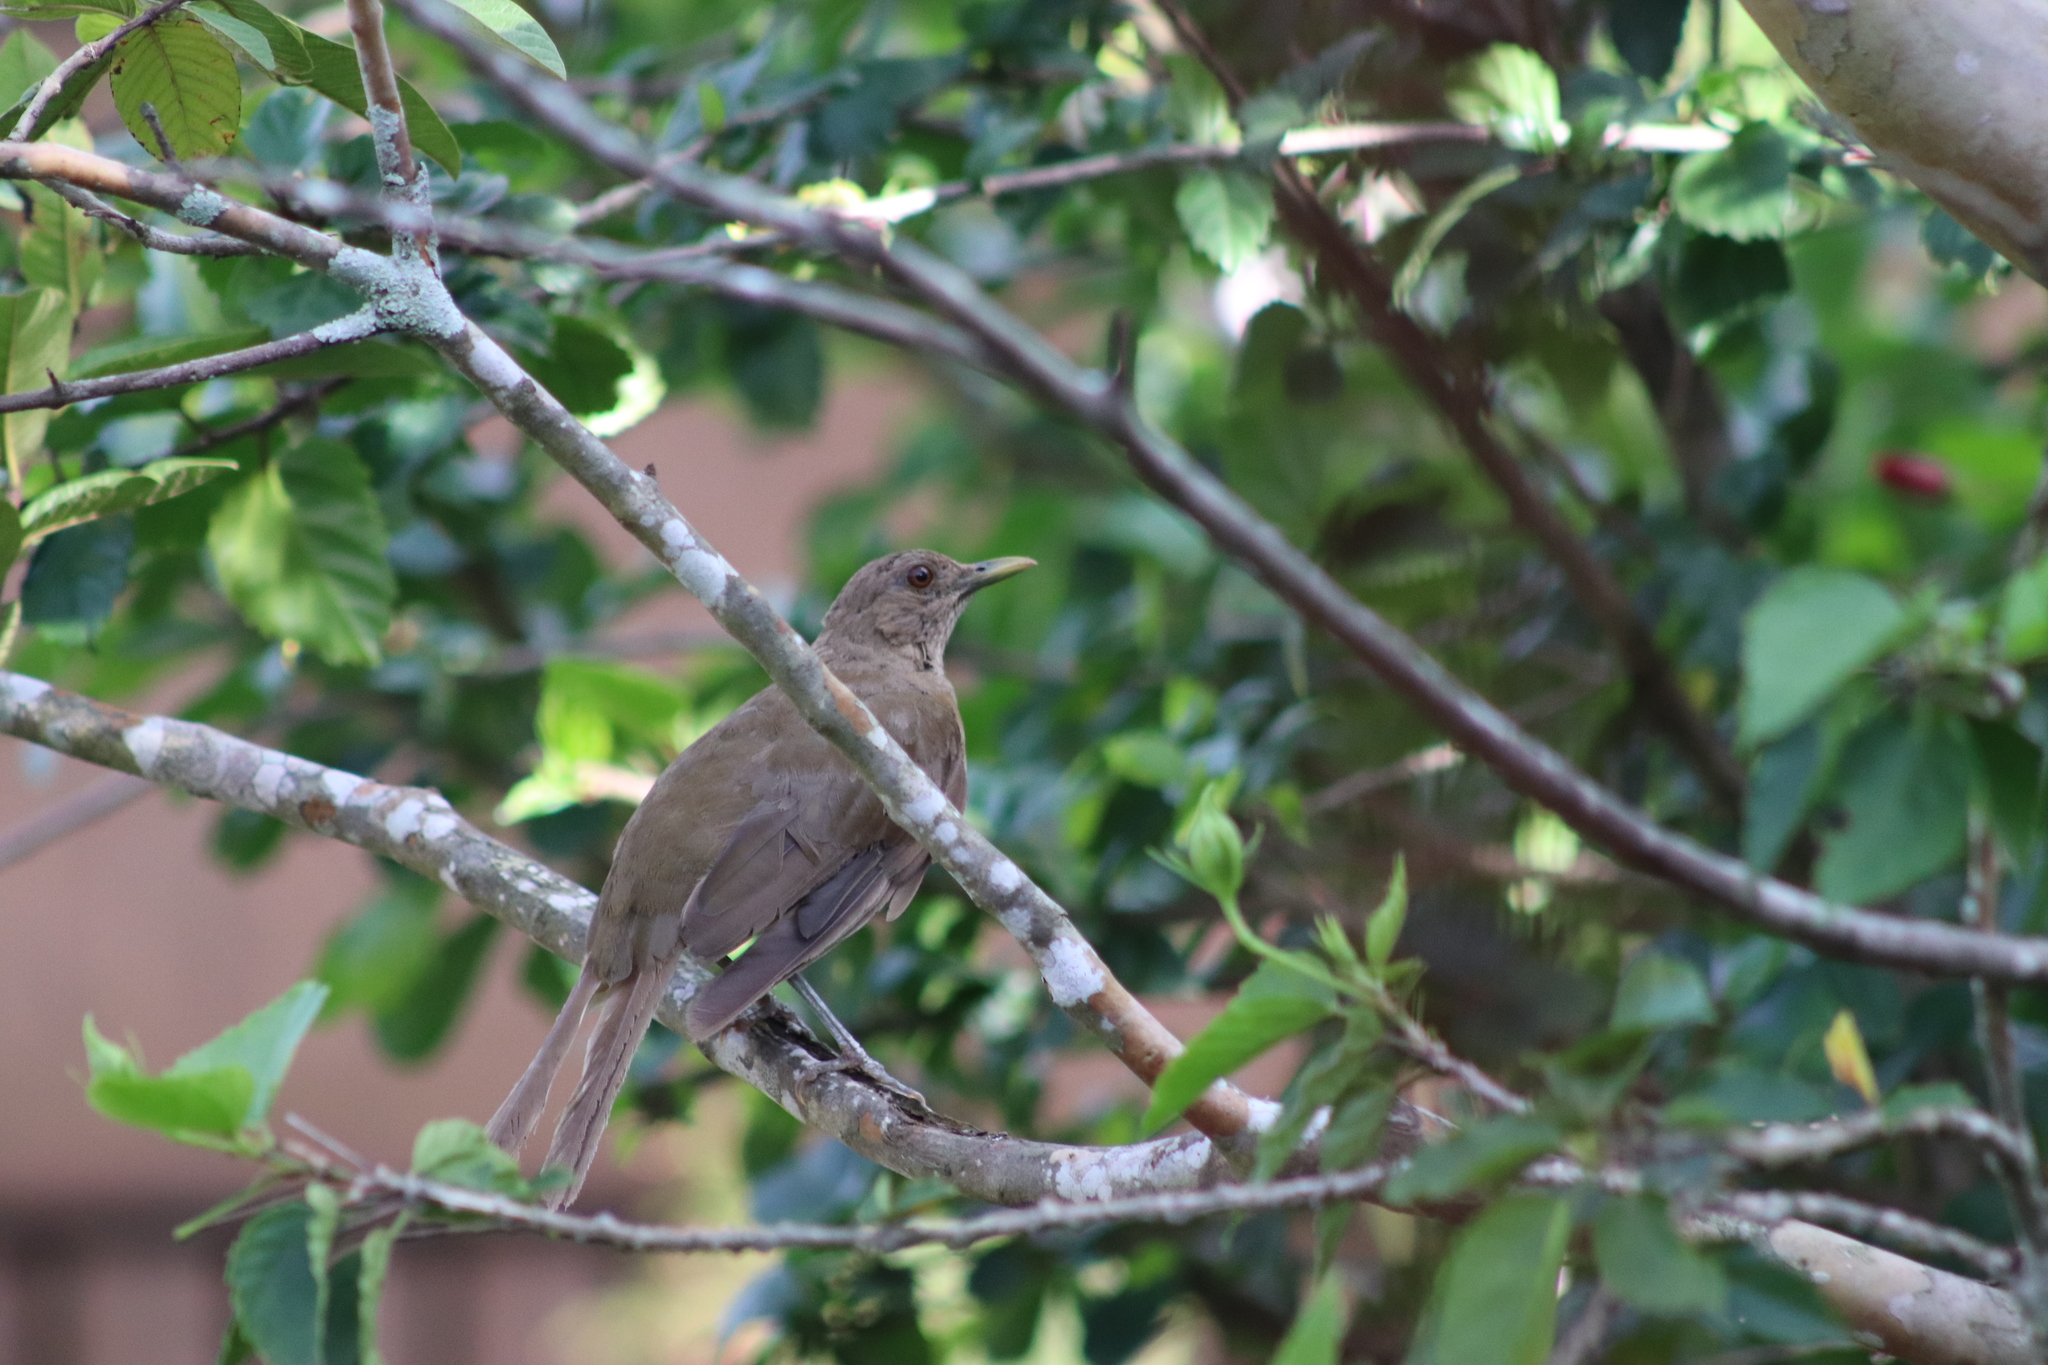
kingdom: Animalia
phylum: Chordata
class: Aves
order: Passeriformes
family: Turdidae
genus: Turdus
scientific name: Turdus grayi
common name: Clay-colored thrush
